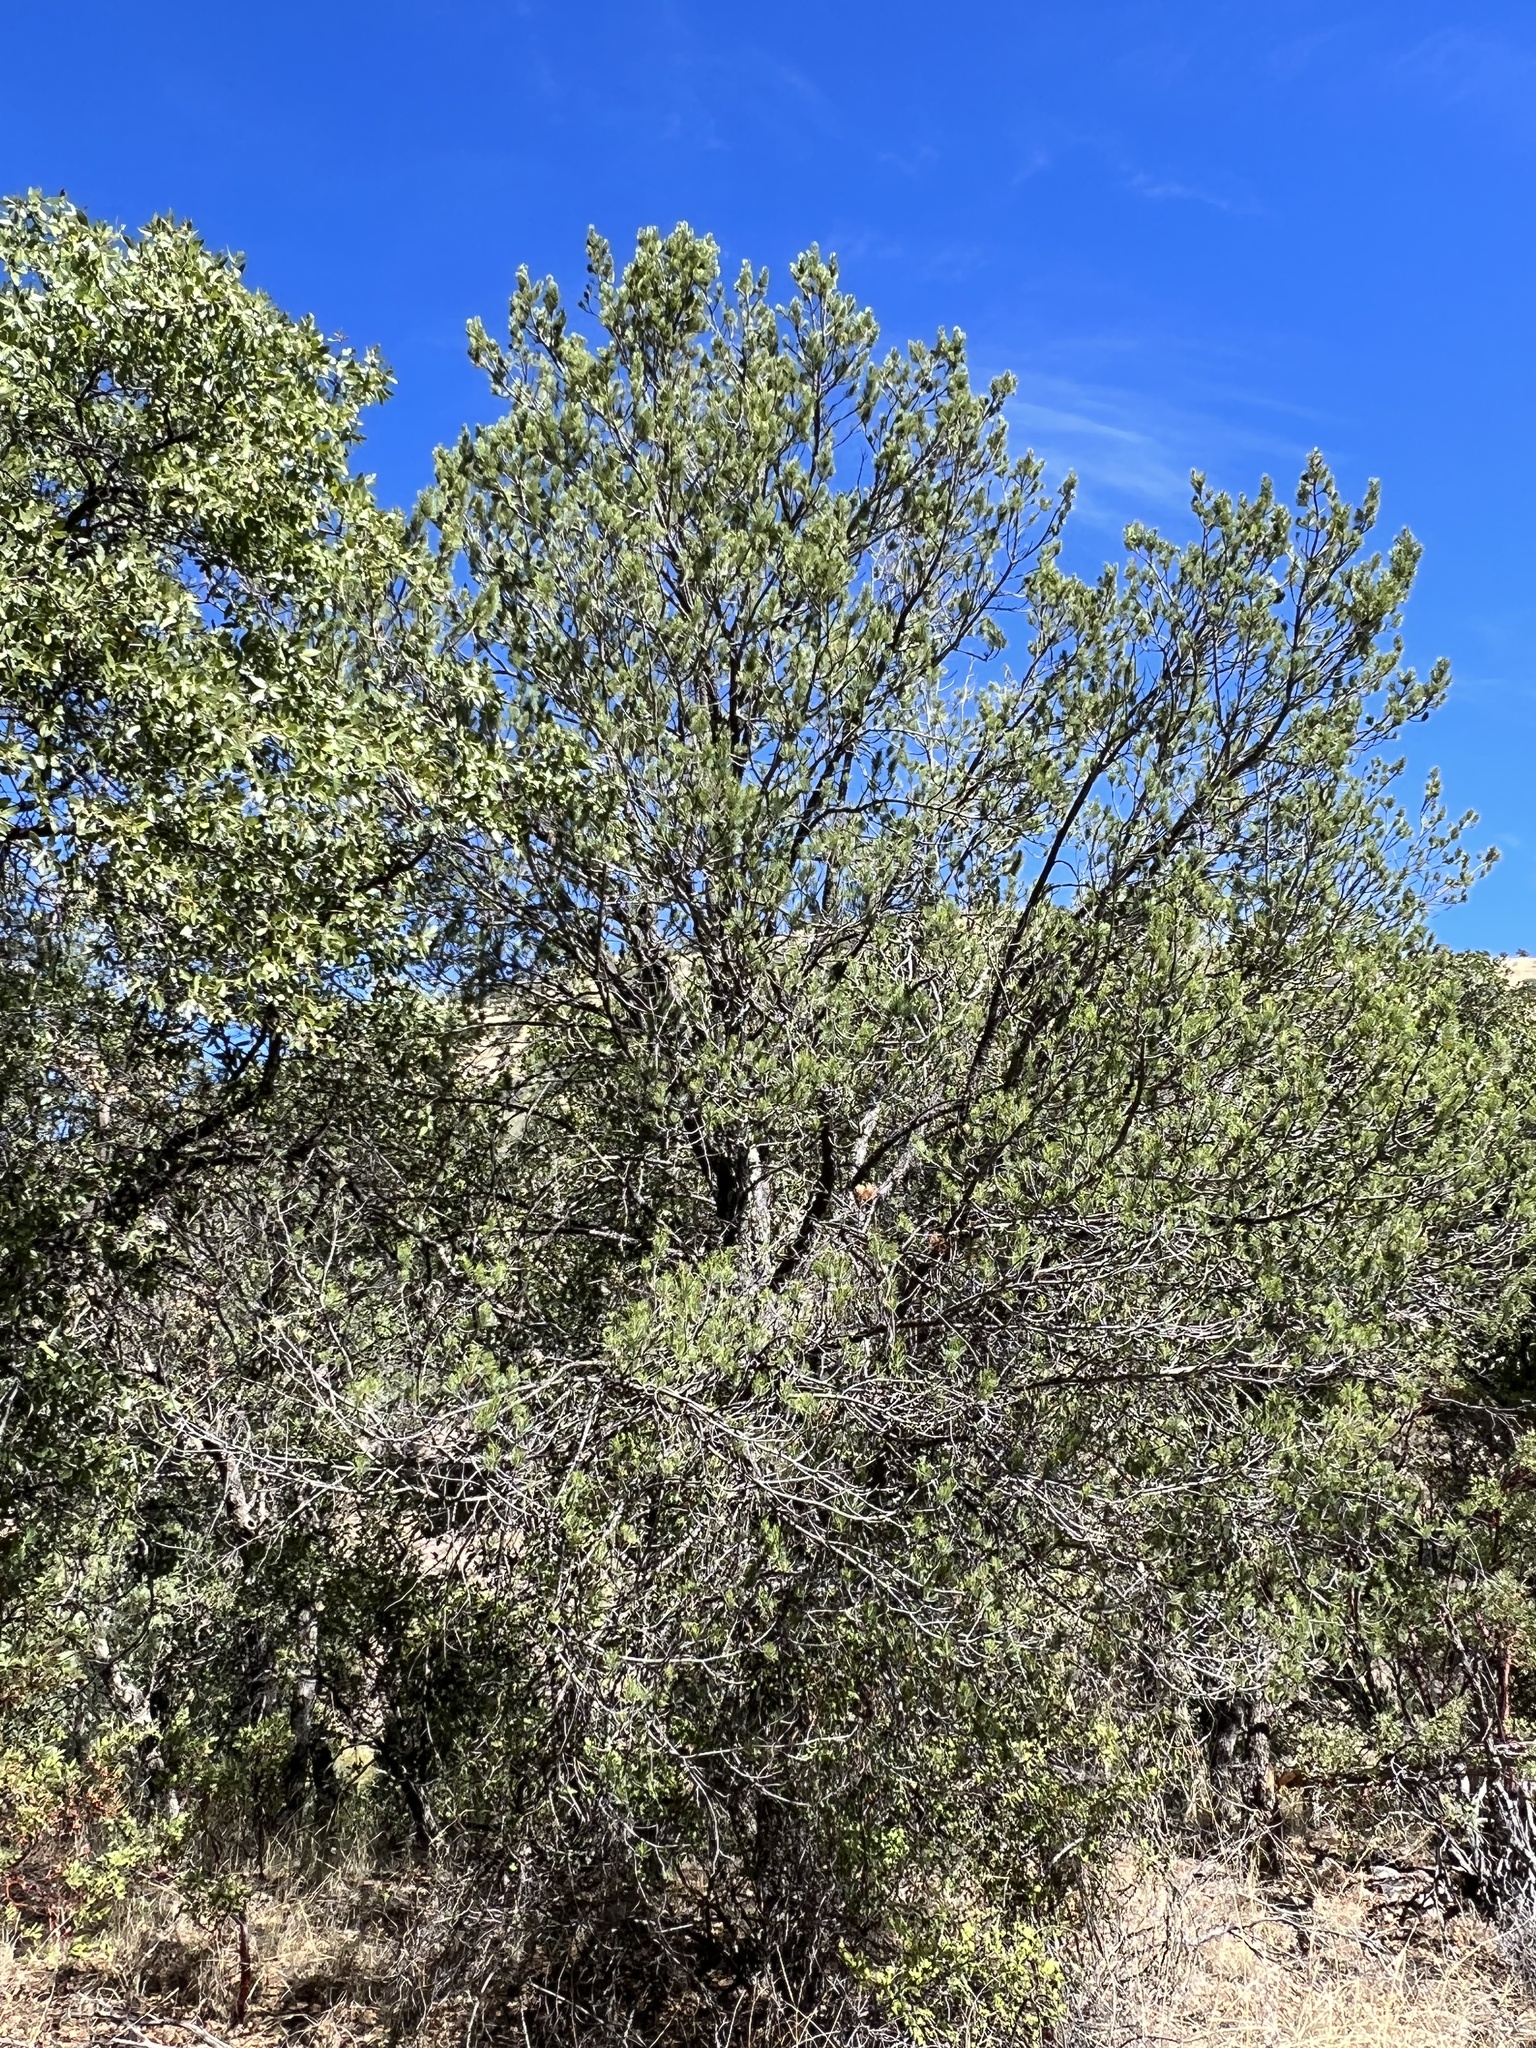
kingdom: Plantae
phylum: Tracheophyta
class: Pinopsida
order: Pinales
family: Pinaceae
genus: Pinus
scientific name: Pinus cembroides
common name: Mexican nut pine
